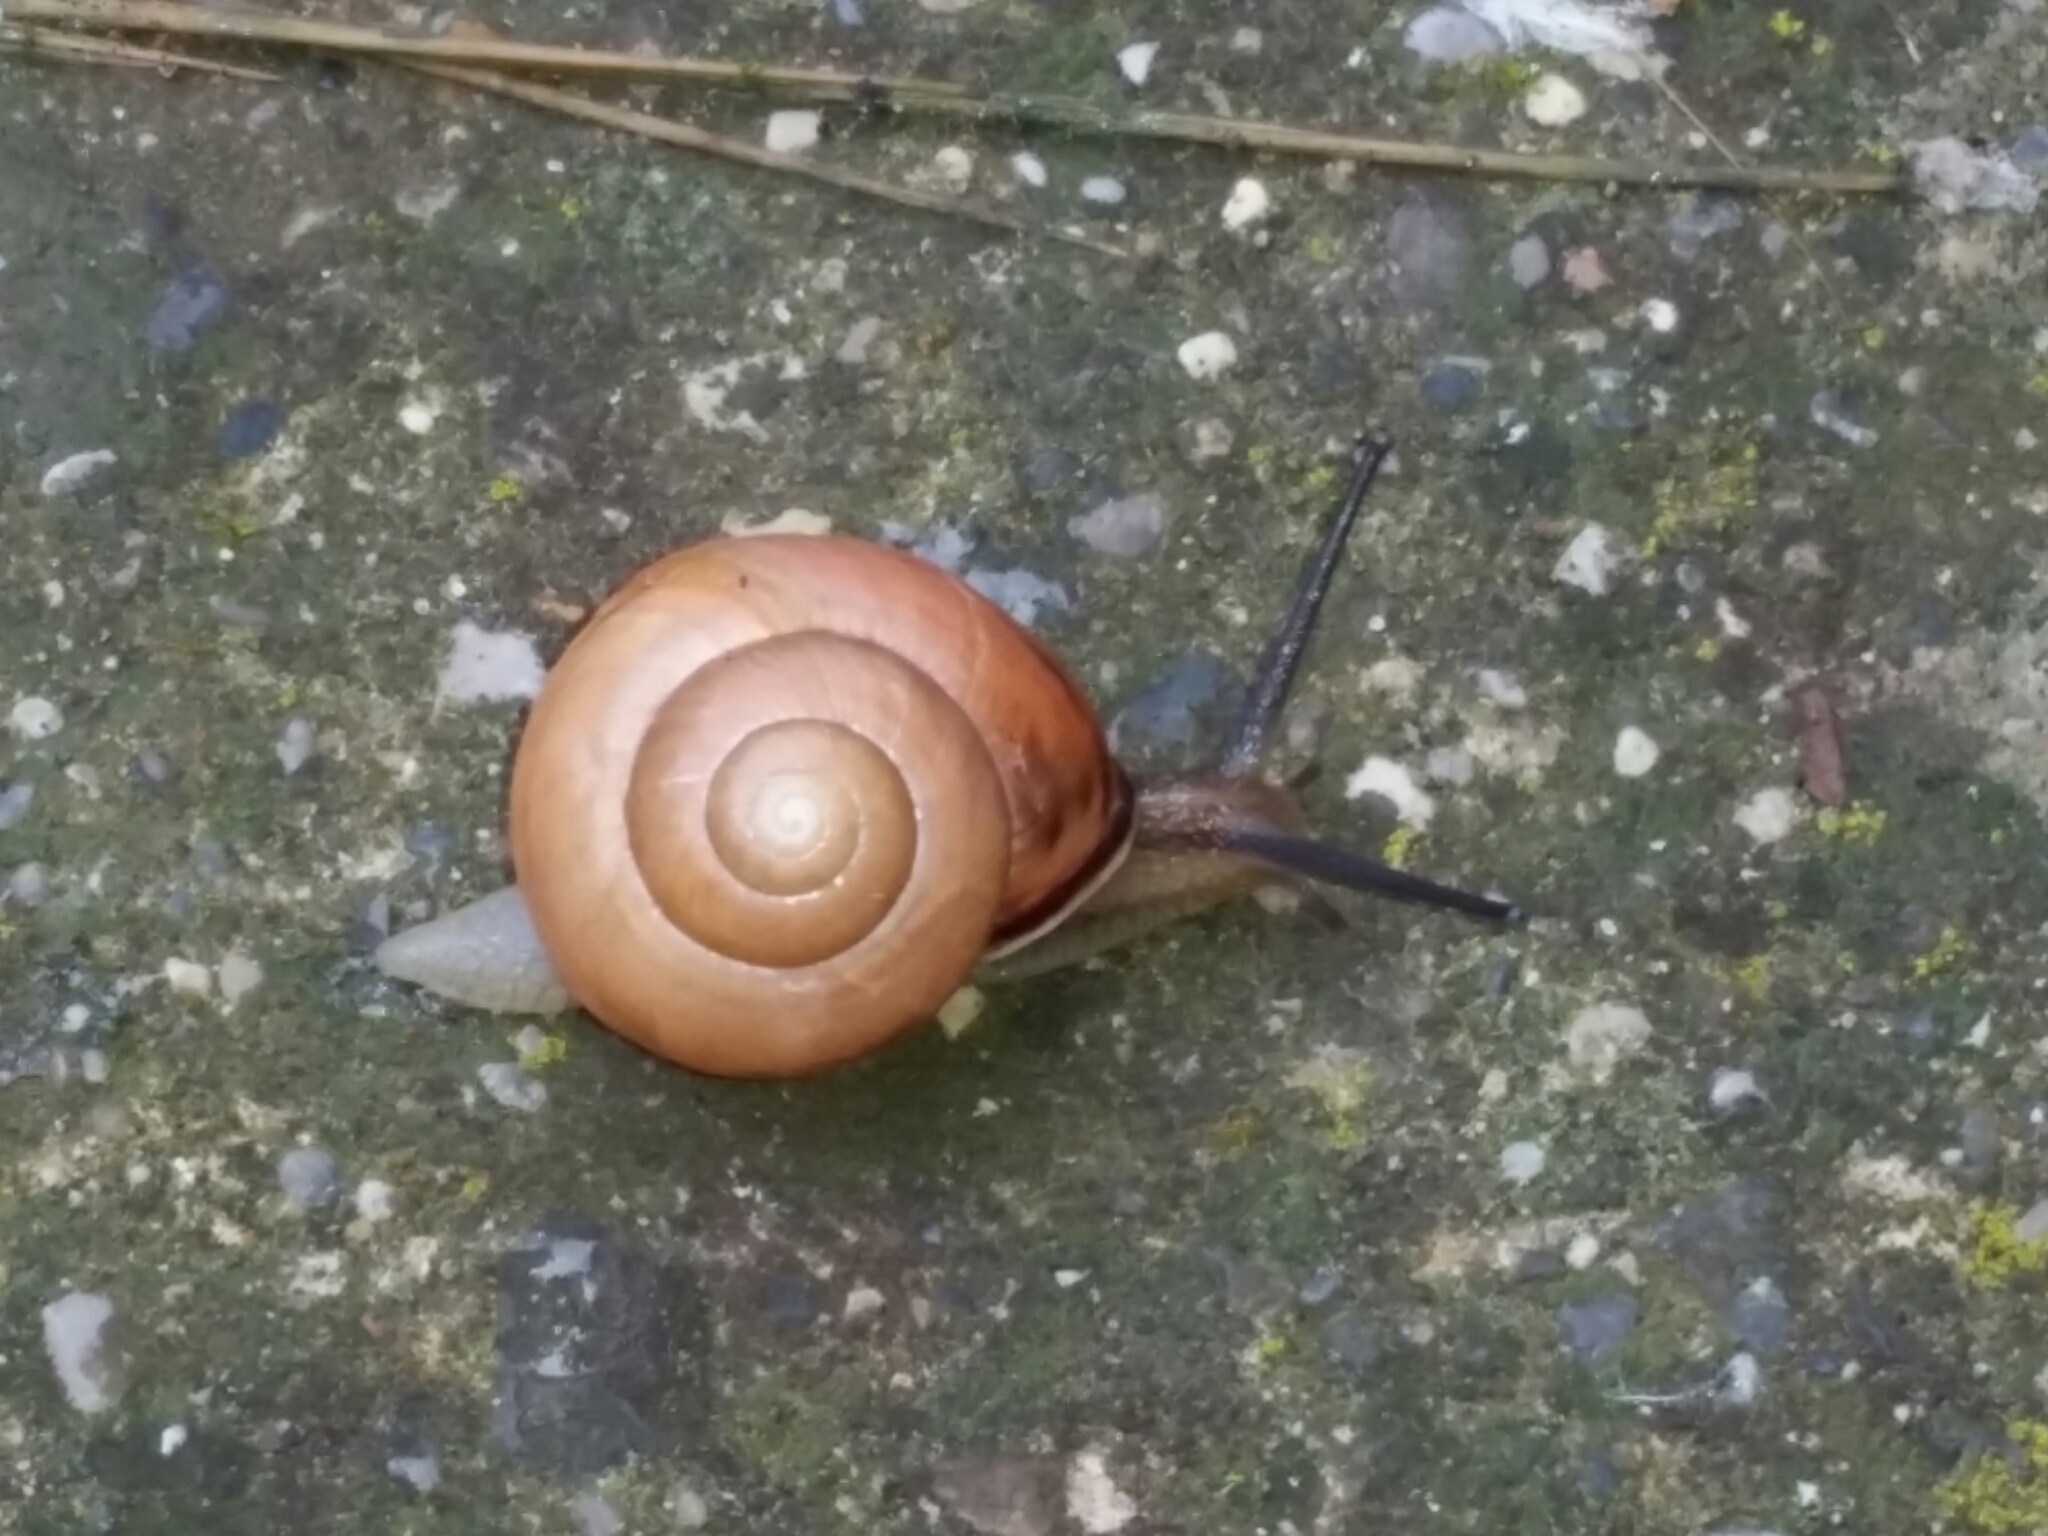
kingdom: Animalia
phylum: Mollusca
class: Gastropoda
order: Stylommatophora
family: Helicidae
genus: Cepaea
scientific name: Cepaea nemoralis
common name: Grovesnail
